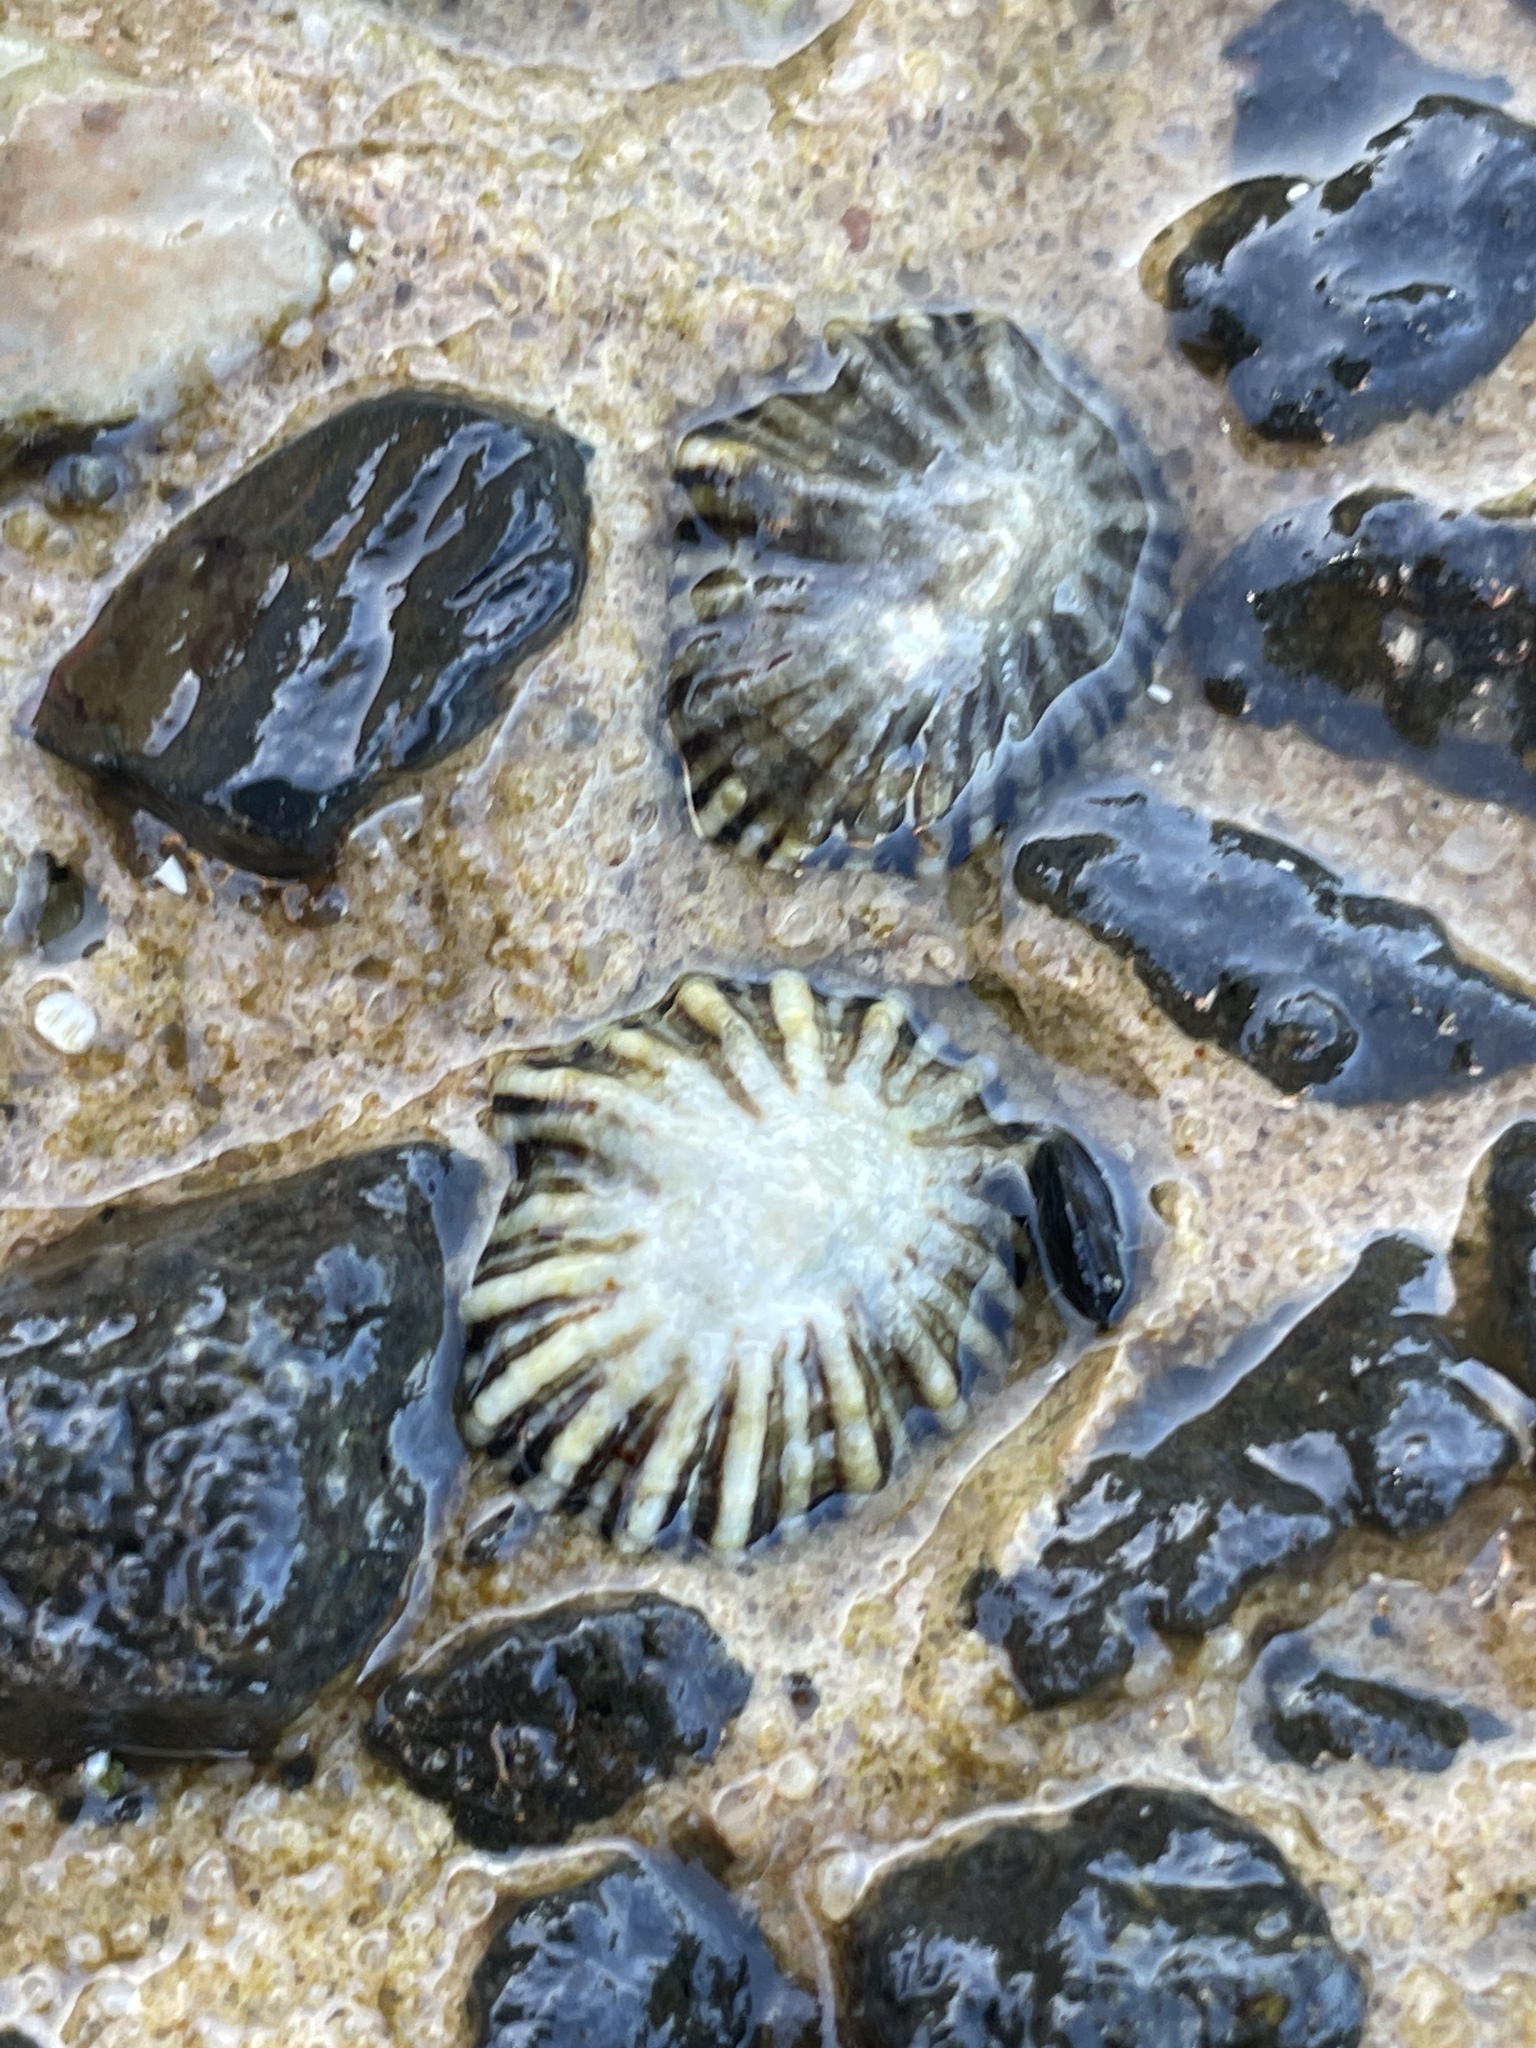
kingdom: Animalia
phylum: Mollusca
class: Gastropoda
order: Siphonariida
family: Siphonariidae
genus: Siphonaria
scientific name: Siphonaria diemenensis
